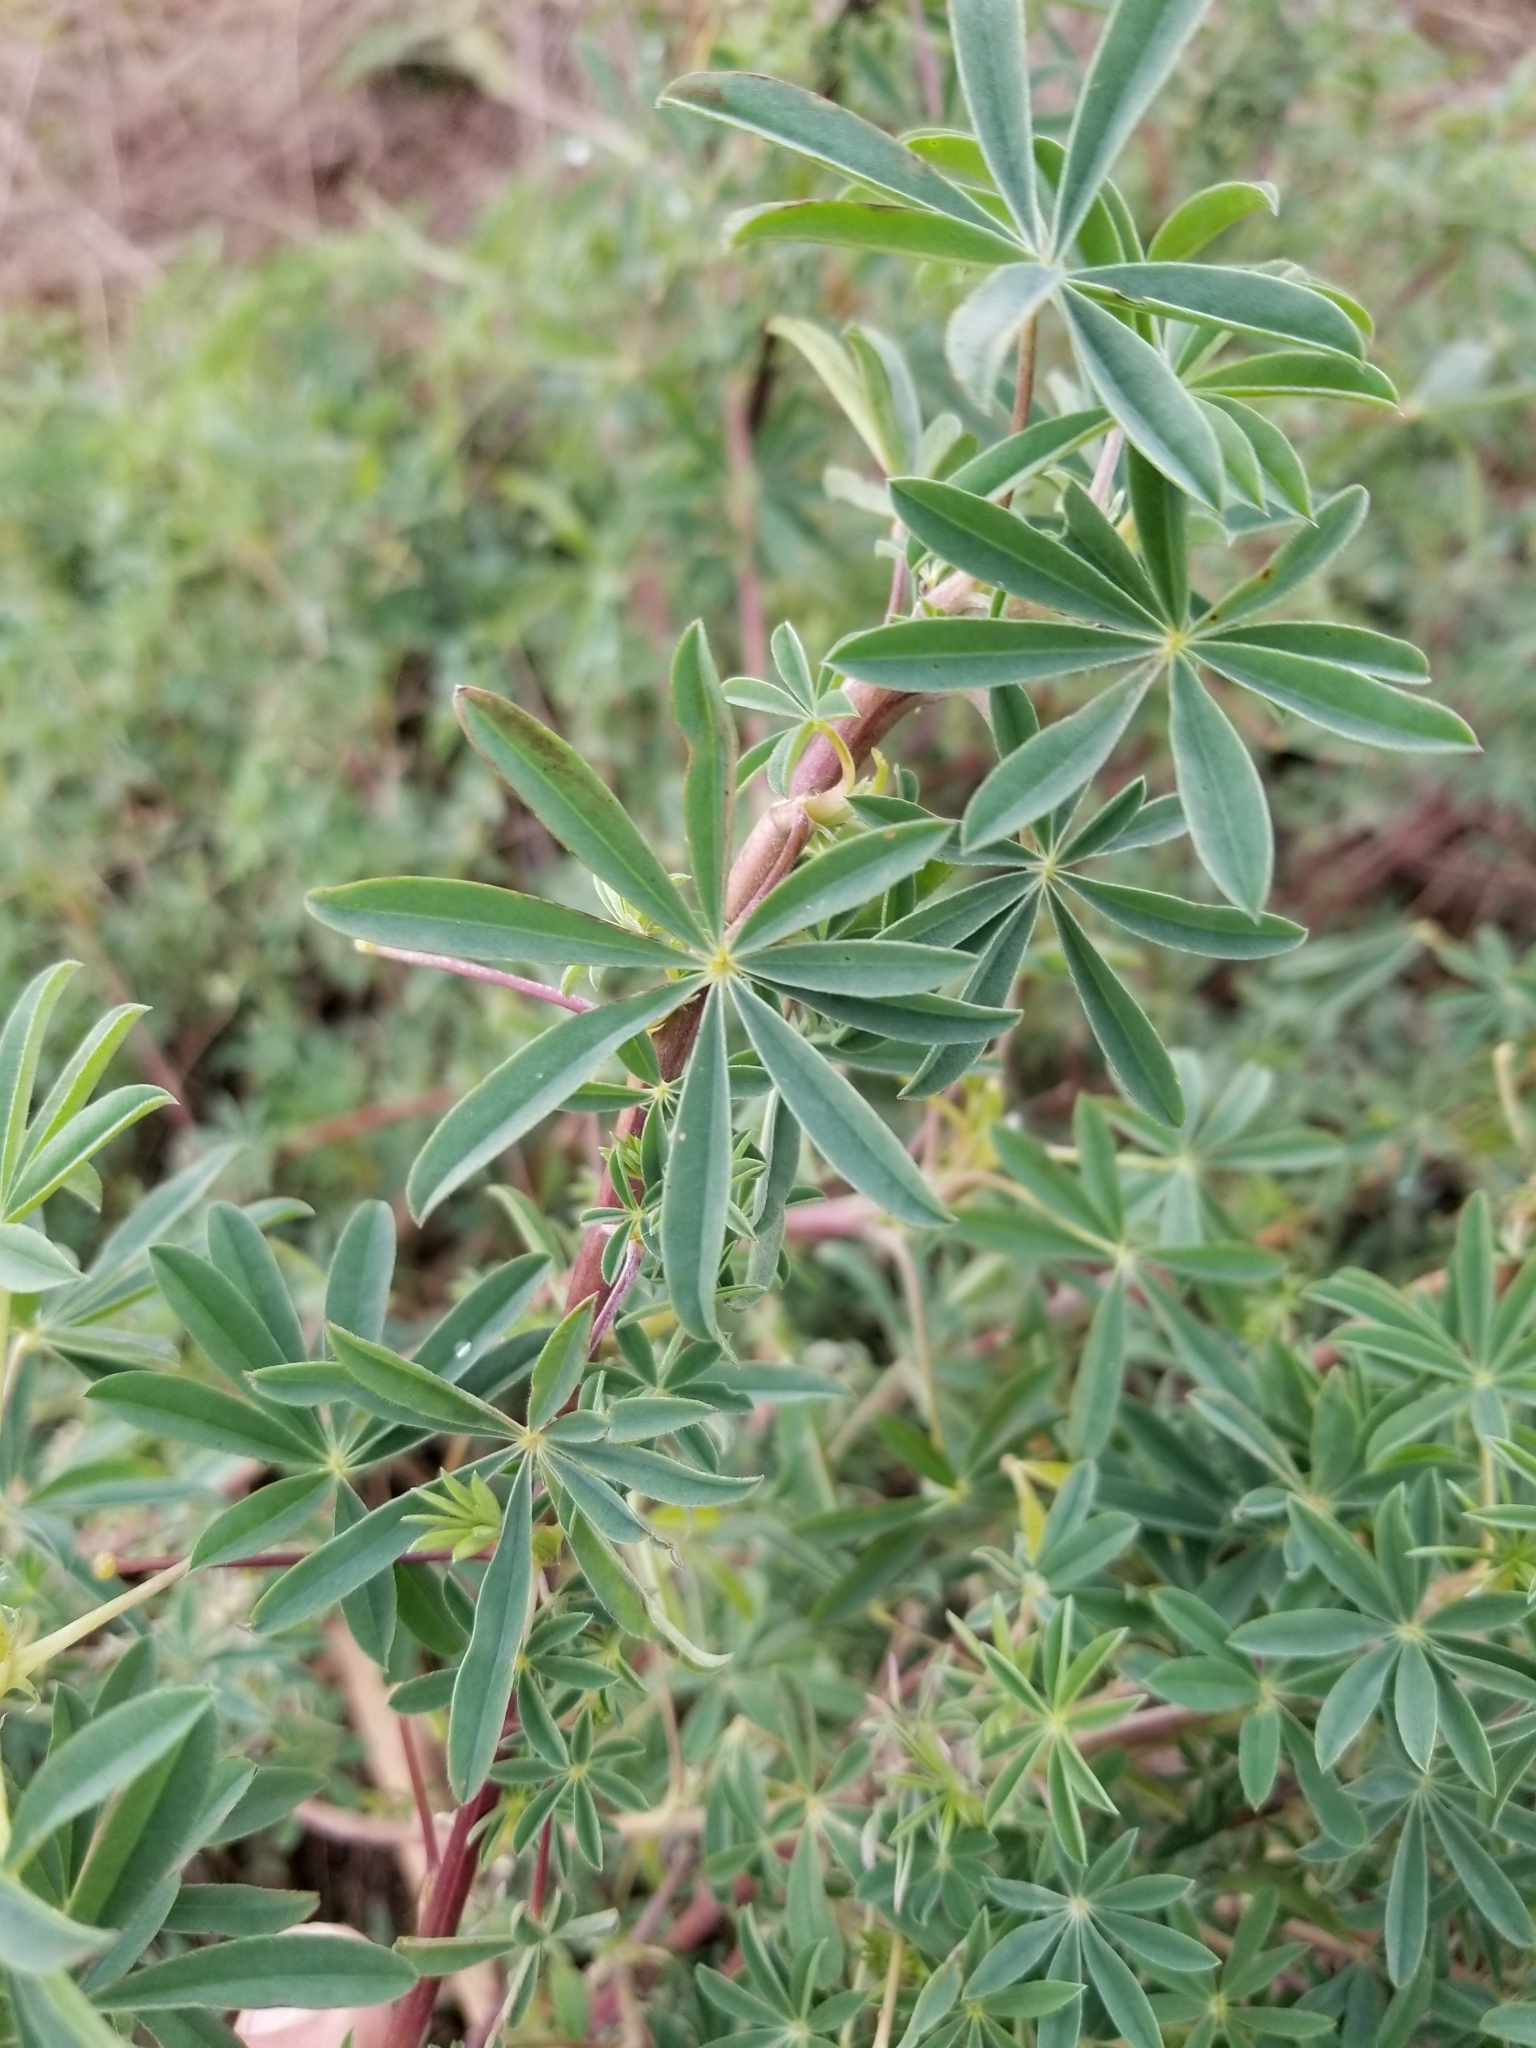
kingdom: Plantae
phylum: Tracheophyta
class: Magnoliopsida
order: Fabales
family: Fabaceae
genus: Lupinus
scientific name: Lupinus rivularis
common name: Riverbank lupine
